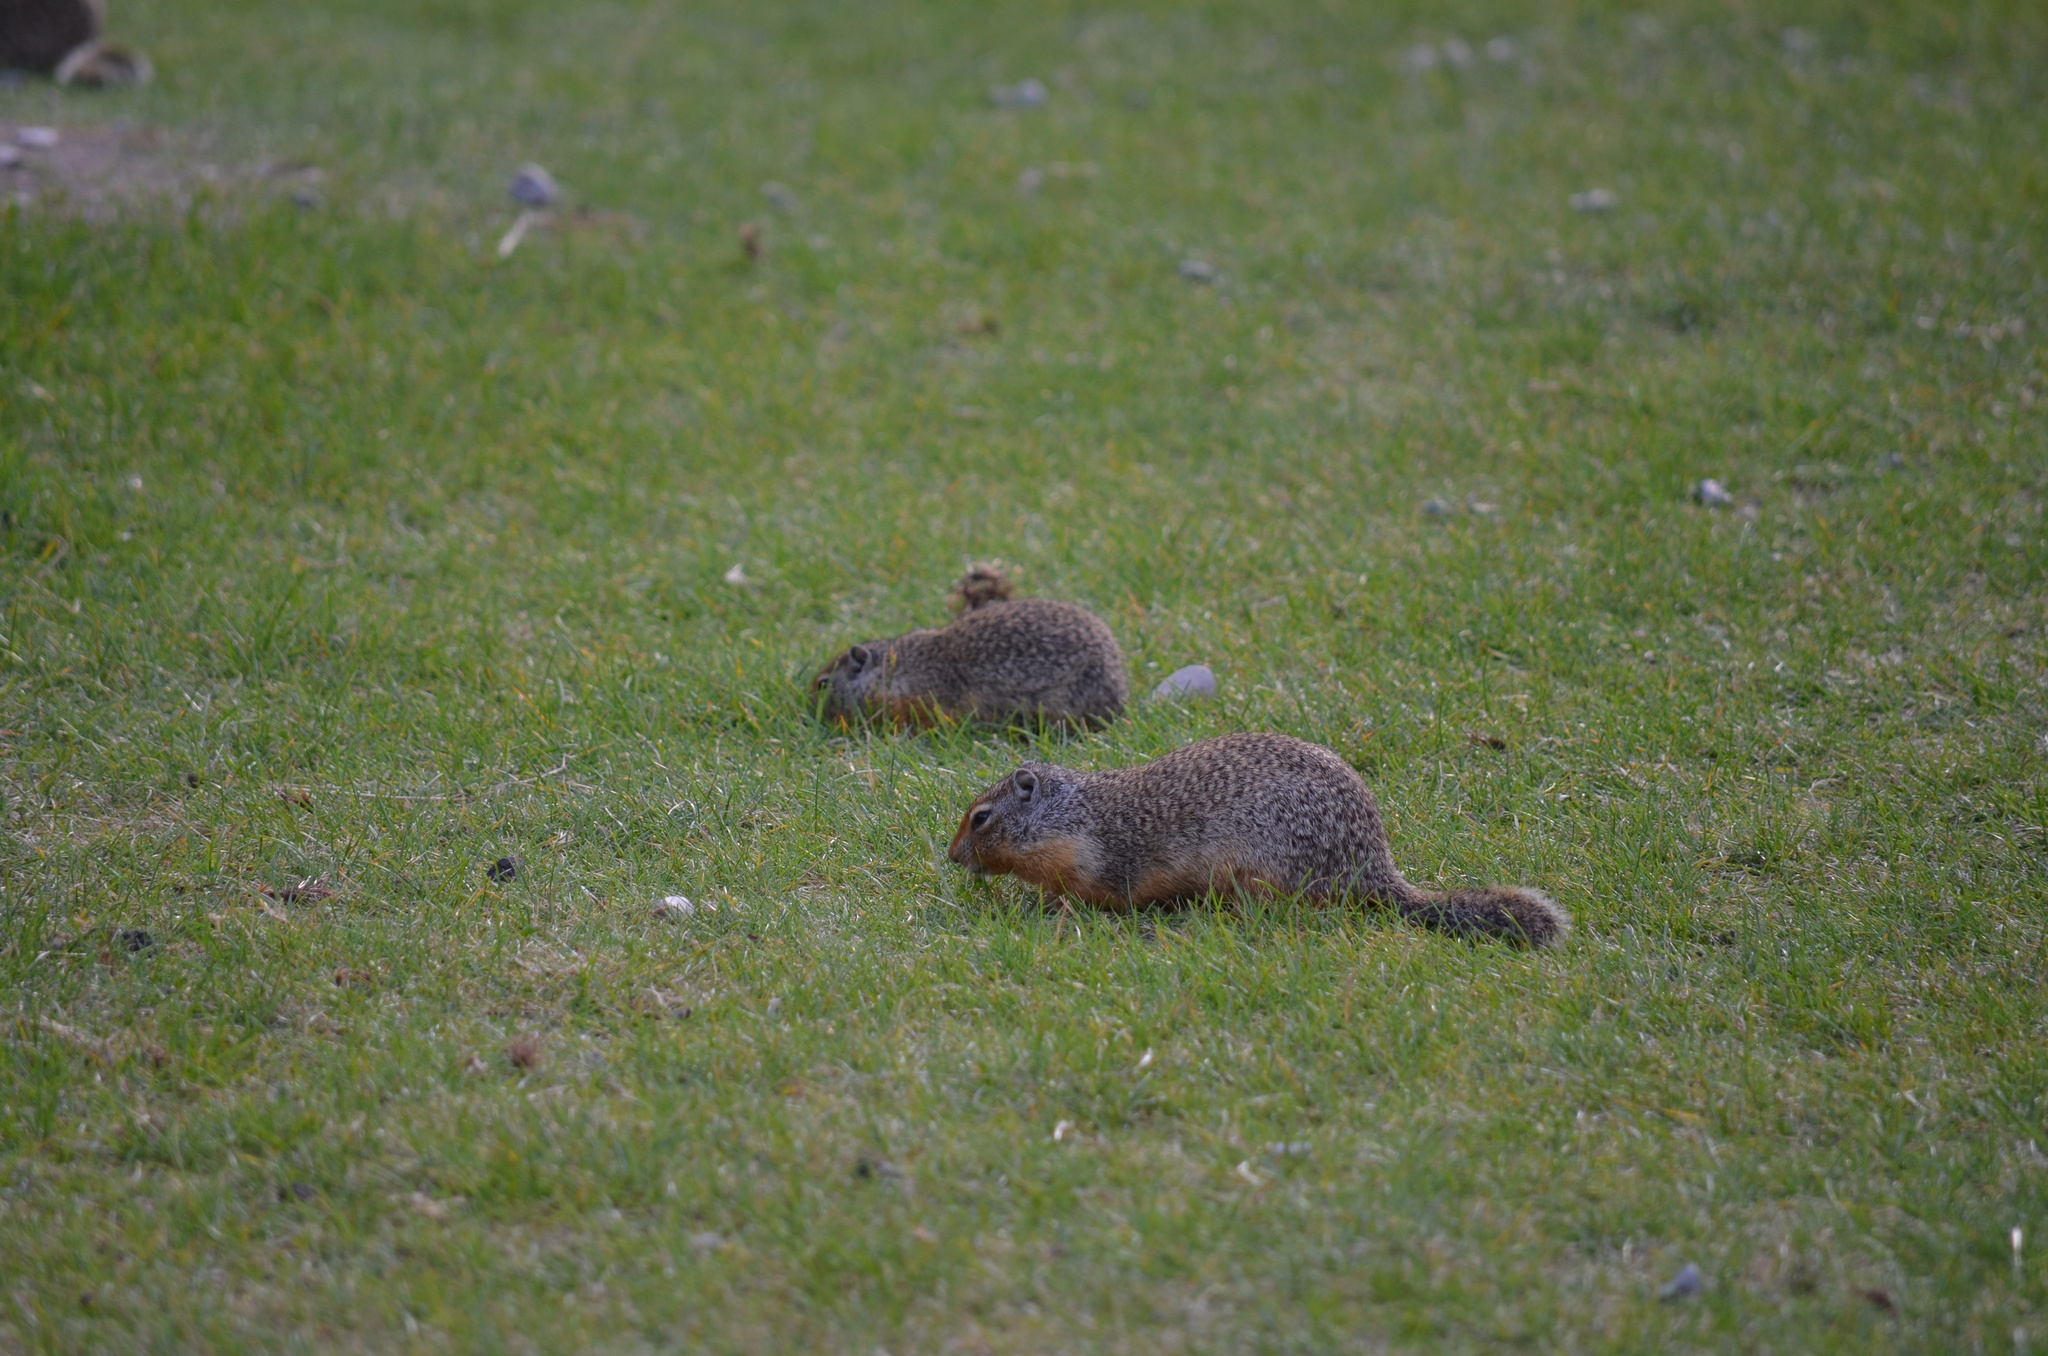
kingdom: Animalia
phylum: Chordata
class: Mammalia
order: Rodentia
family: Sciuridae
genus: Urocitellus
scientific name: Urocitellus columbianus
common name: Columbian ground squirrel
